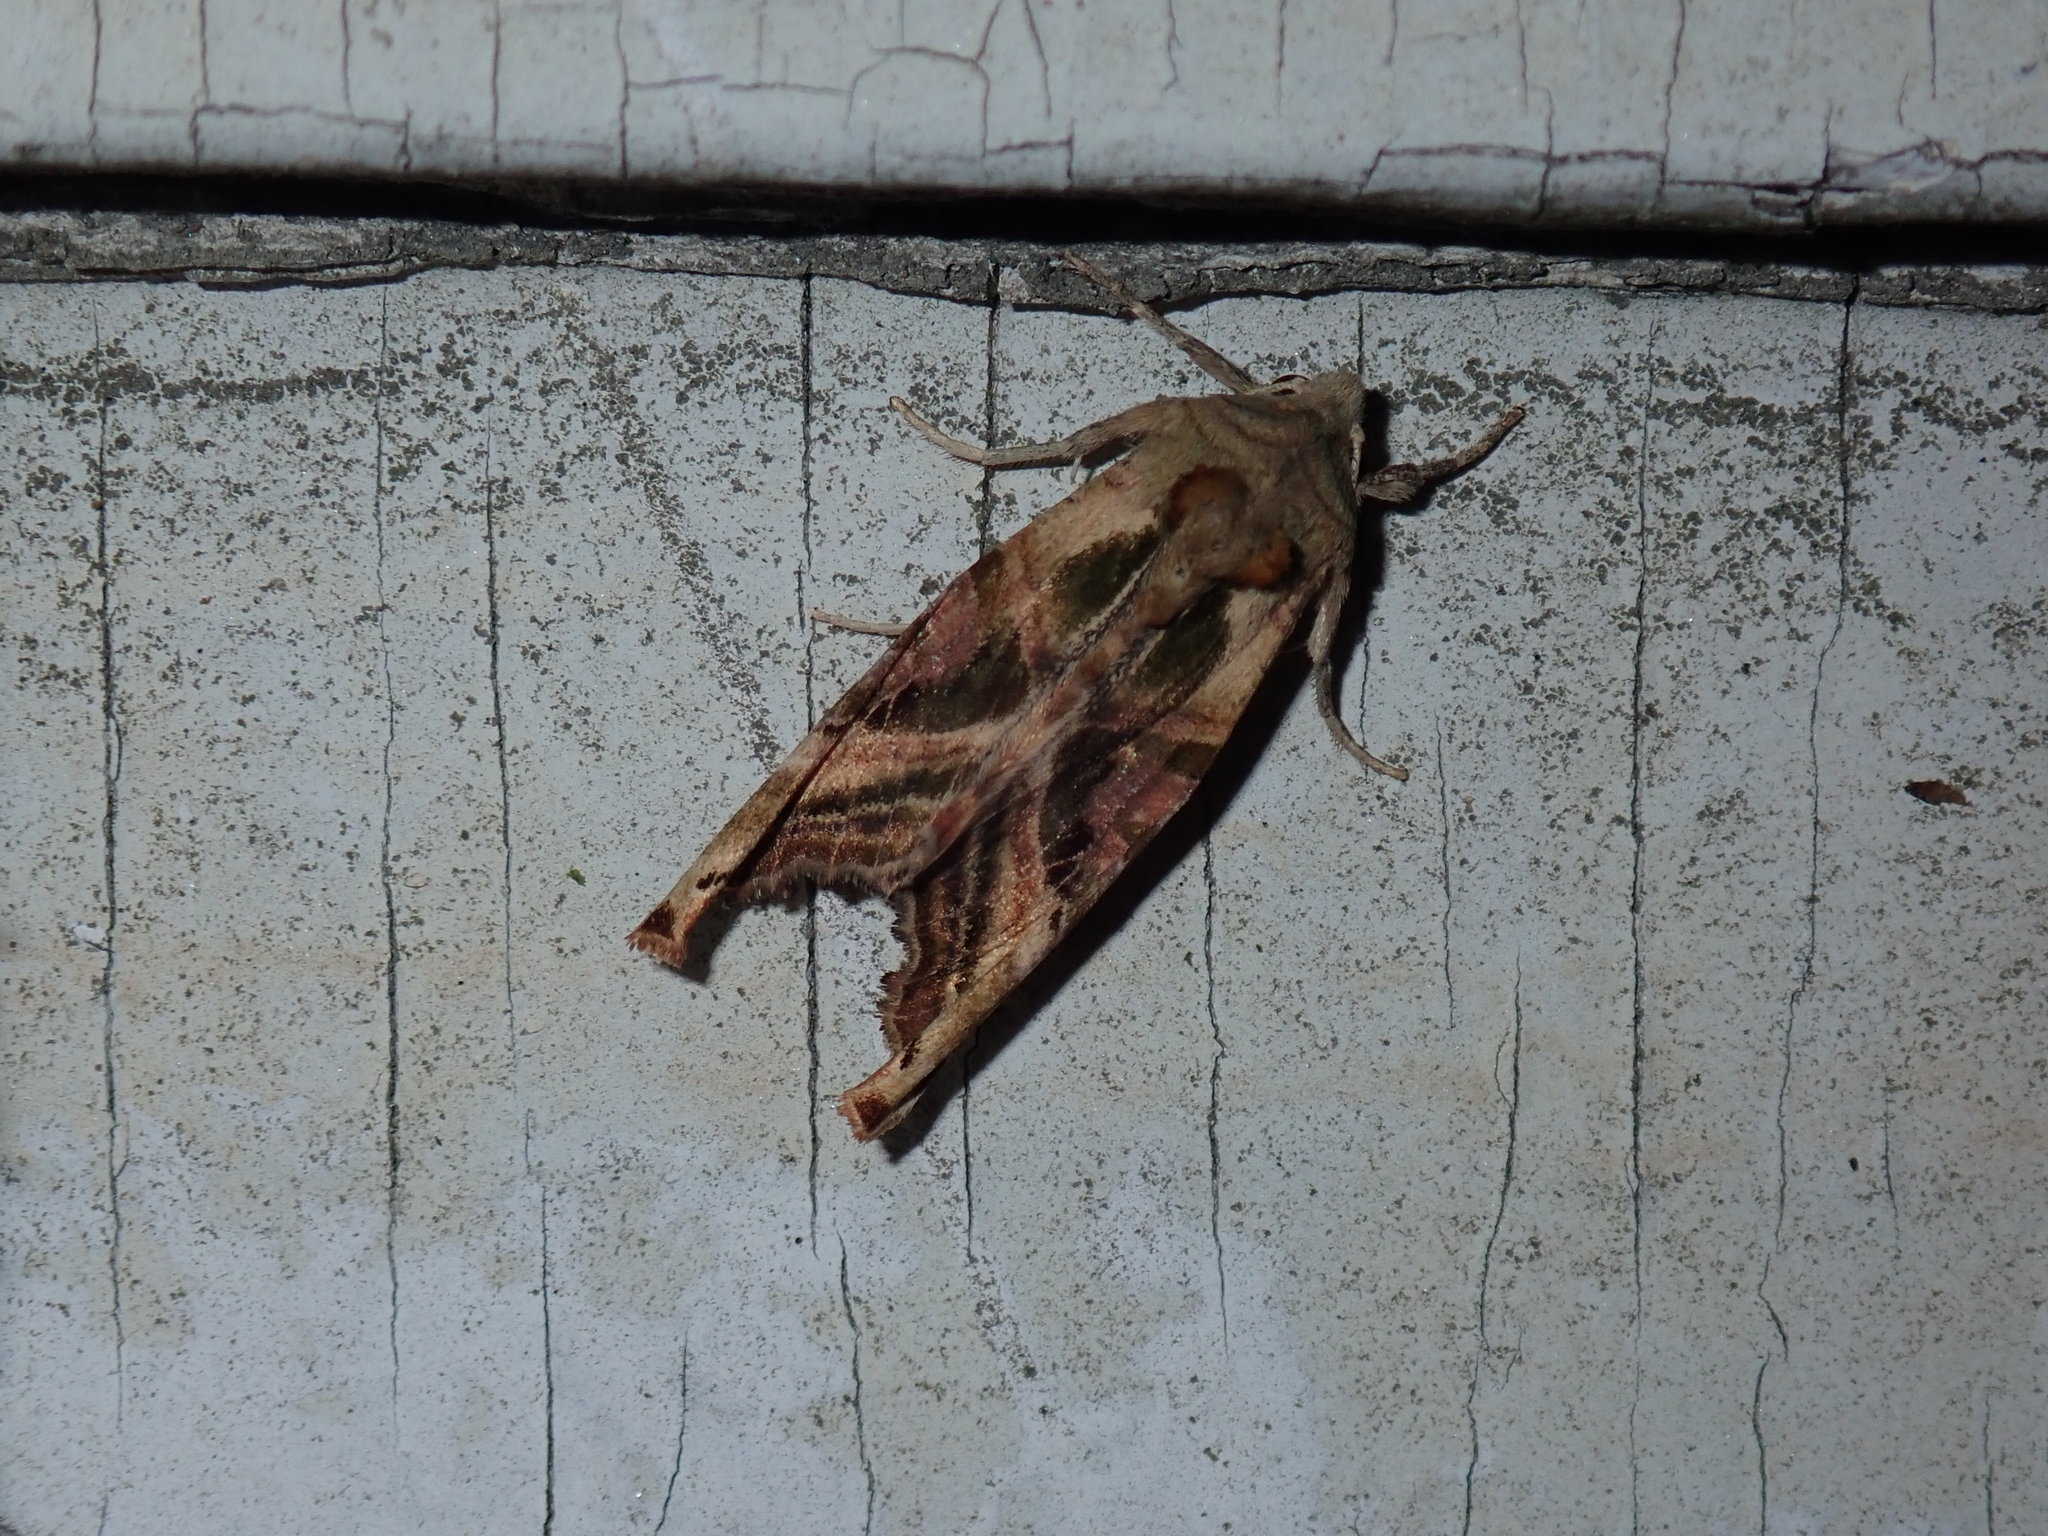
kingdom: Animalia
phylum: Arthropoda
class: Insecta
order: Lepidoptera
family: Noctuidae
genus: Phlogophora
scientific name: Phlogophora iris
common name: Olive angle shades
